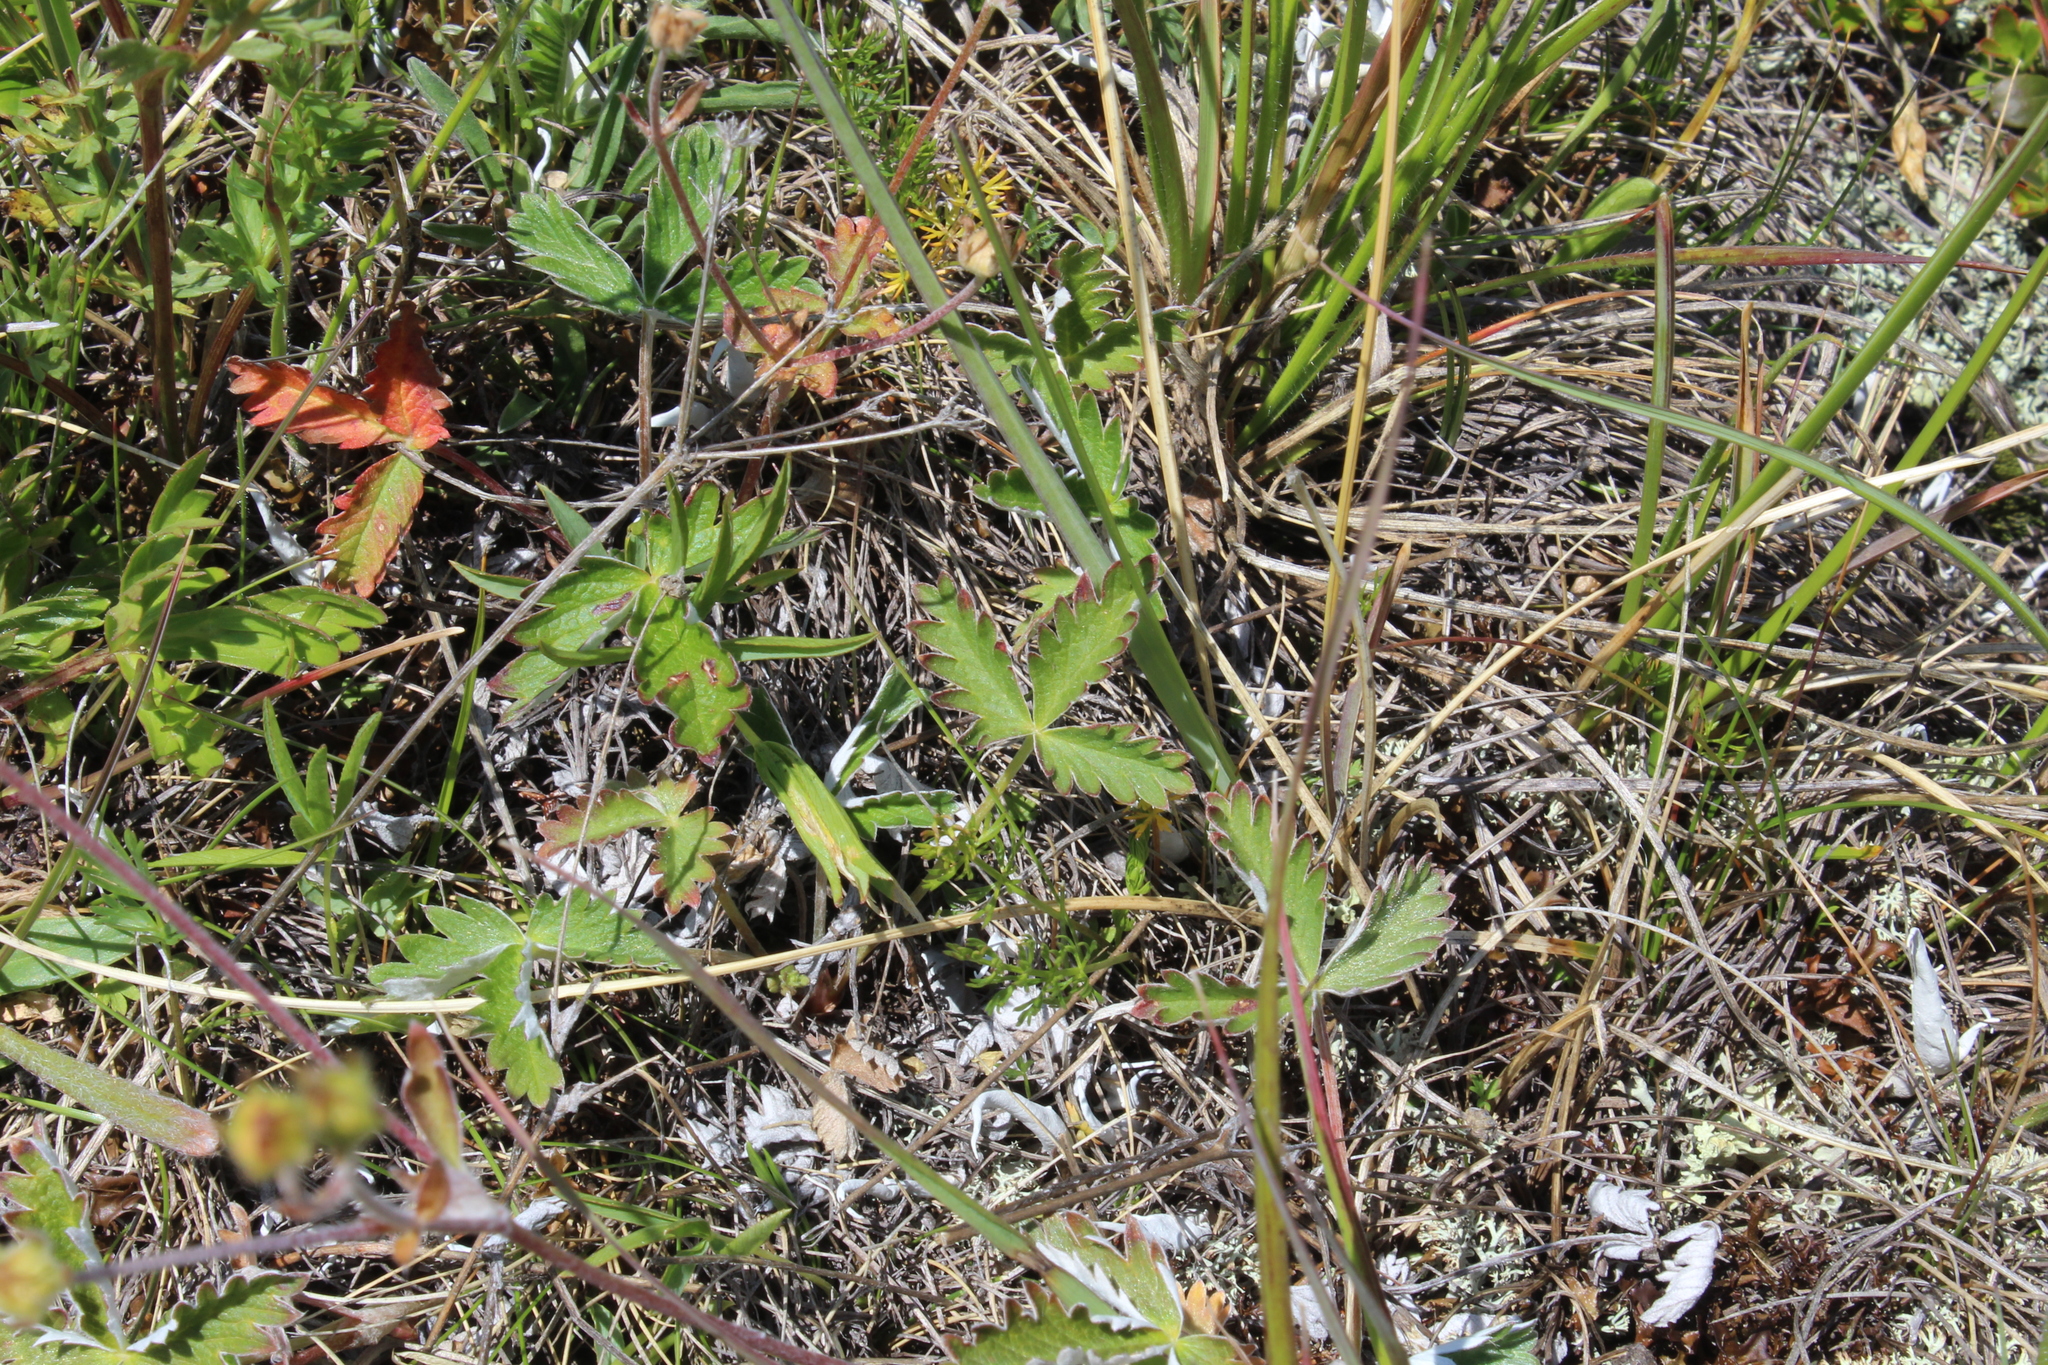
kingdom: Plantae
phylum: Tracheophyta
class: Magnoliopsida
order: Rosales
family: Rosaceae
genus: Potentilla
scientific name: Potentilla nivea
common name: Snow cinquefoil
